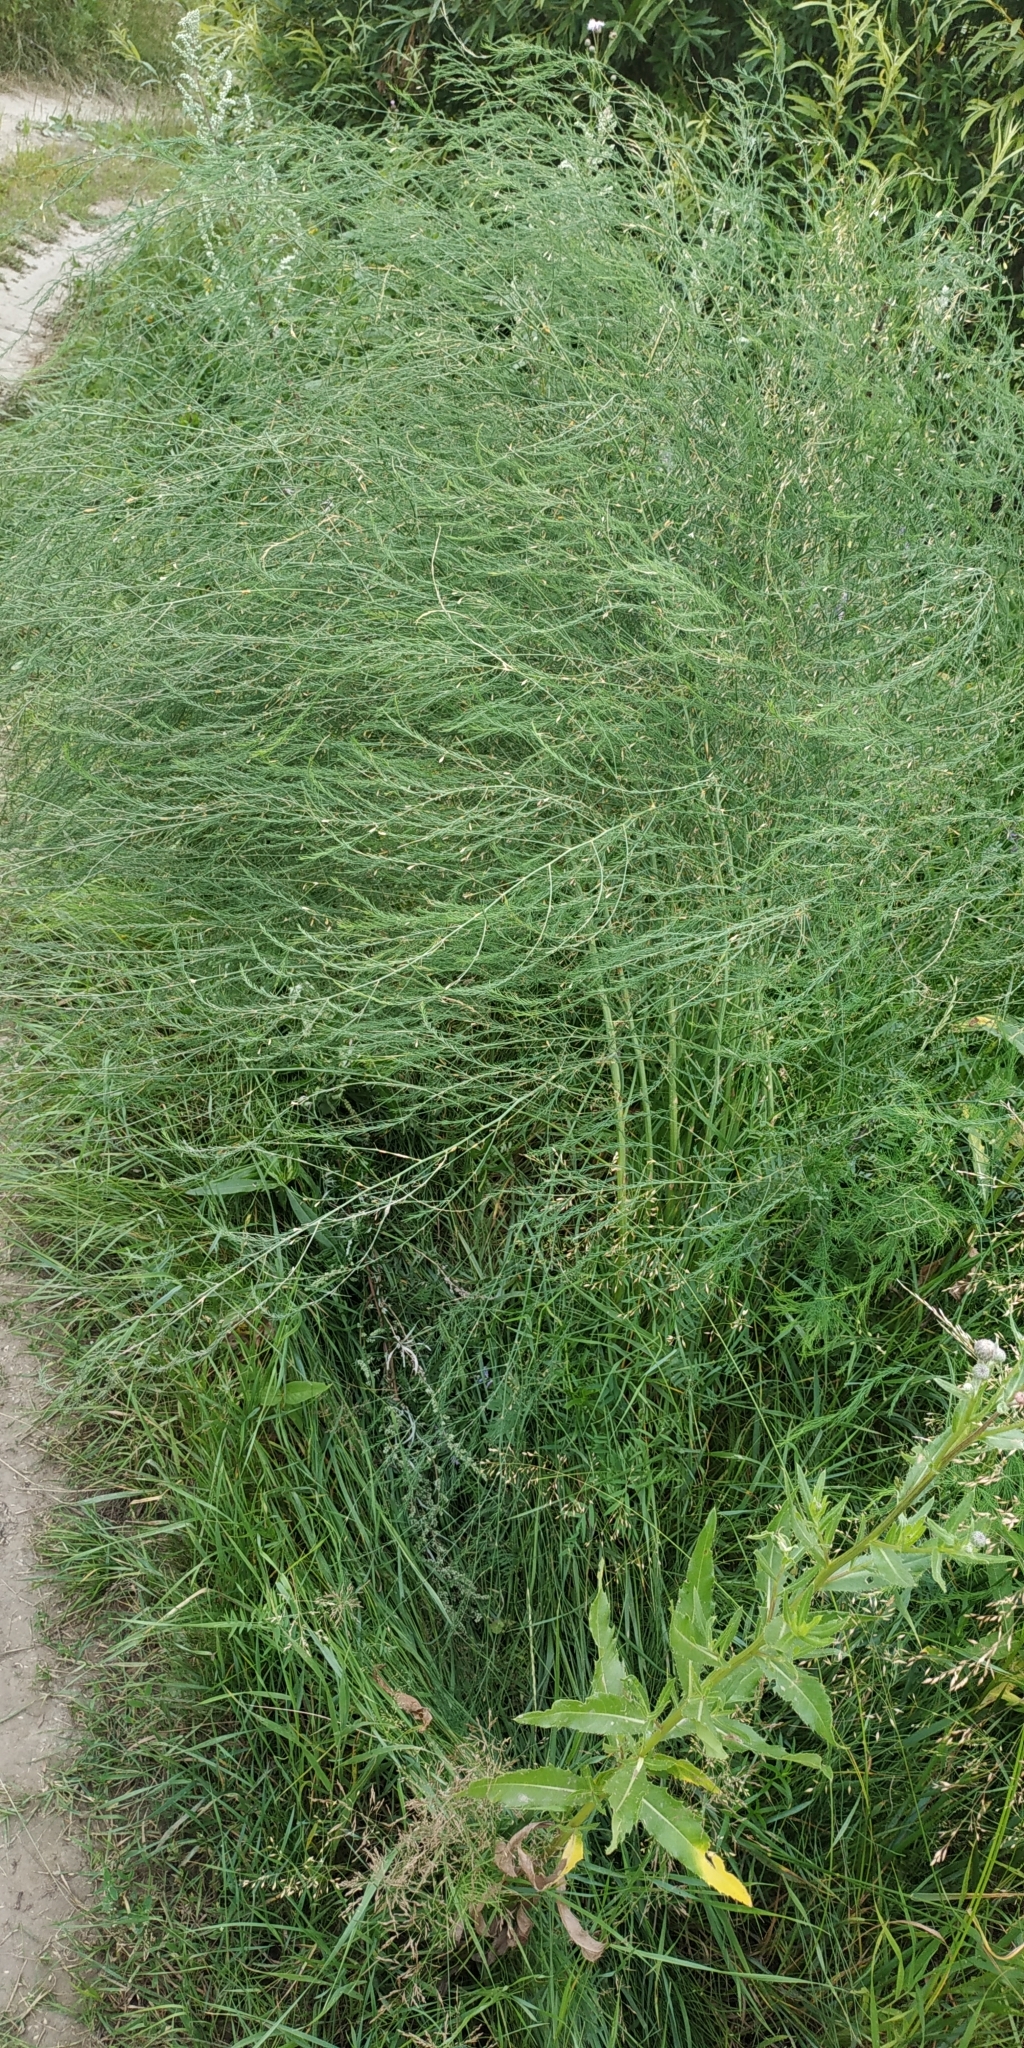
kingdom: Plantae
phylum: Tracheophyta
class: Liliopsida
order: Asparagales
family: Asparagaceae
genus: Asparagus
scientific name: Asparagus officinalis
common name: Garden asparagus
